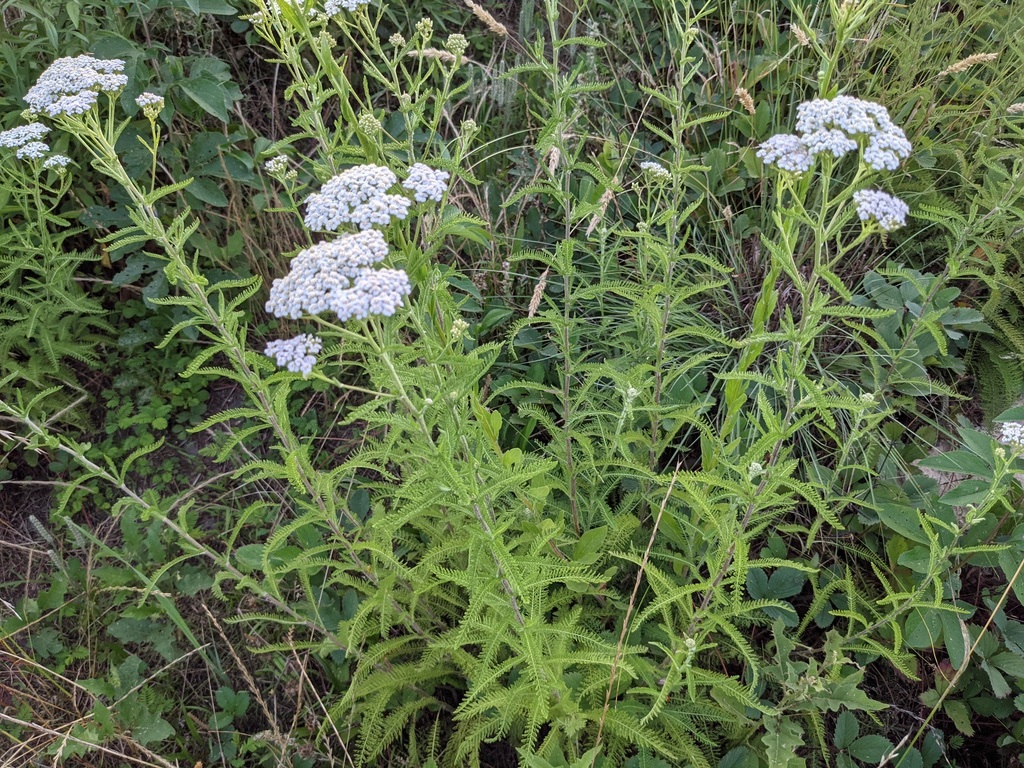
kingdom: Plantae
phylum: Tracheophyta
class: Magnoliopsida
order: Asterales
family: Asteraceae
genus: Achillea
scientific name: Achillea millefolium
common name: Yarrow
